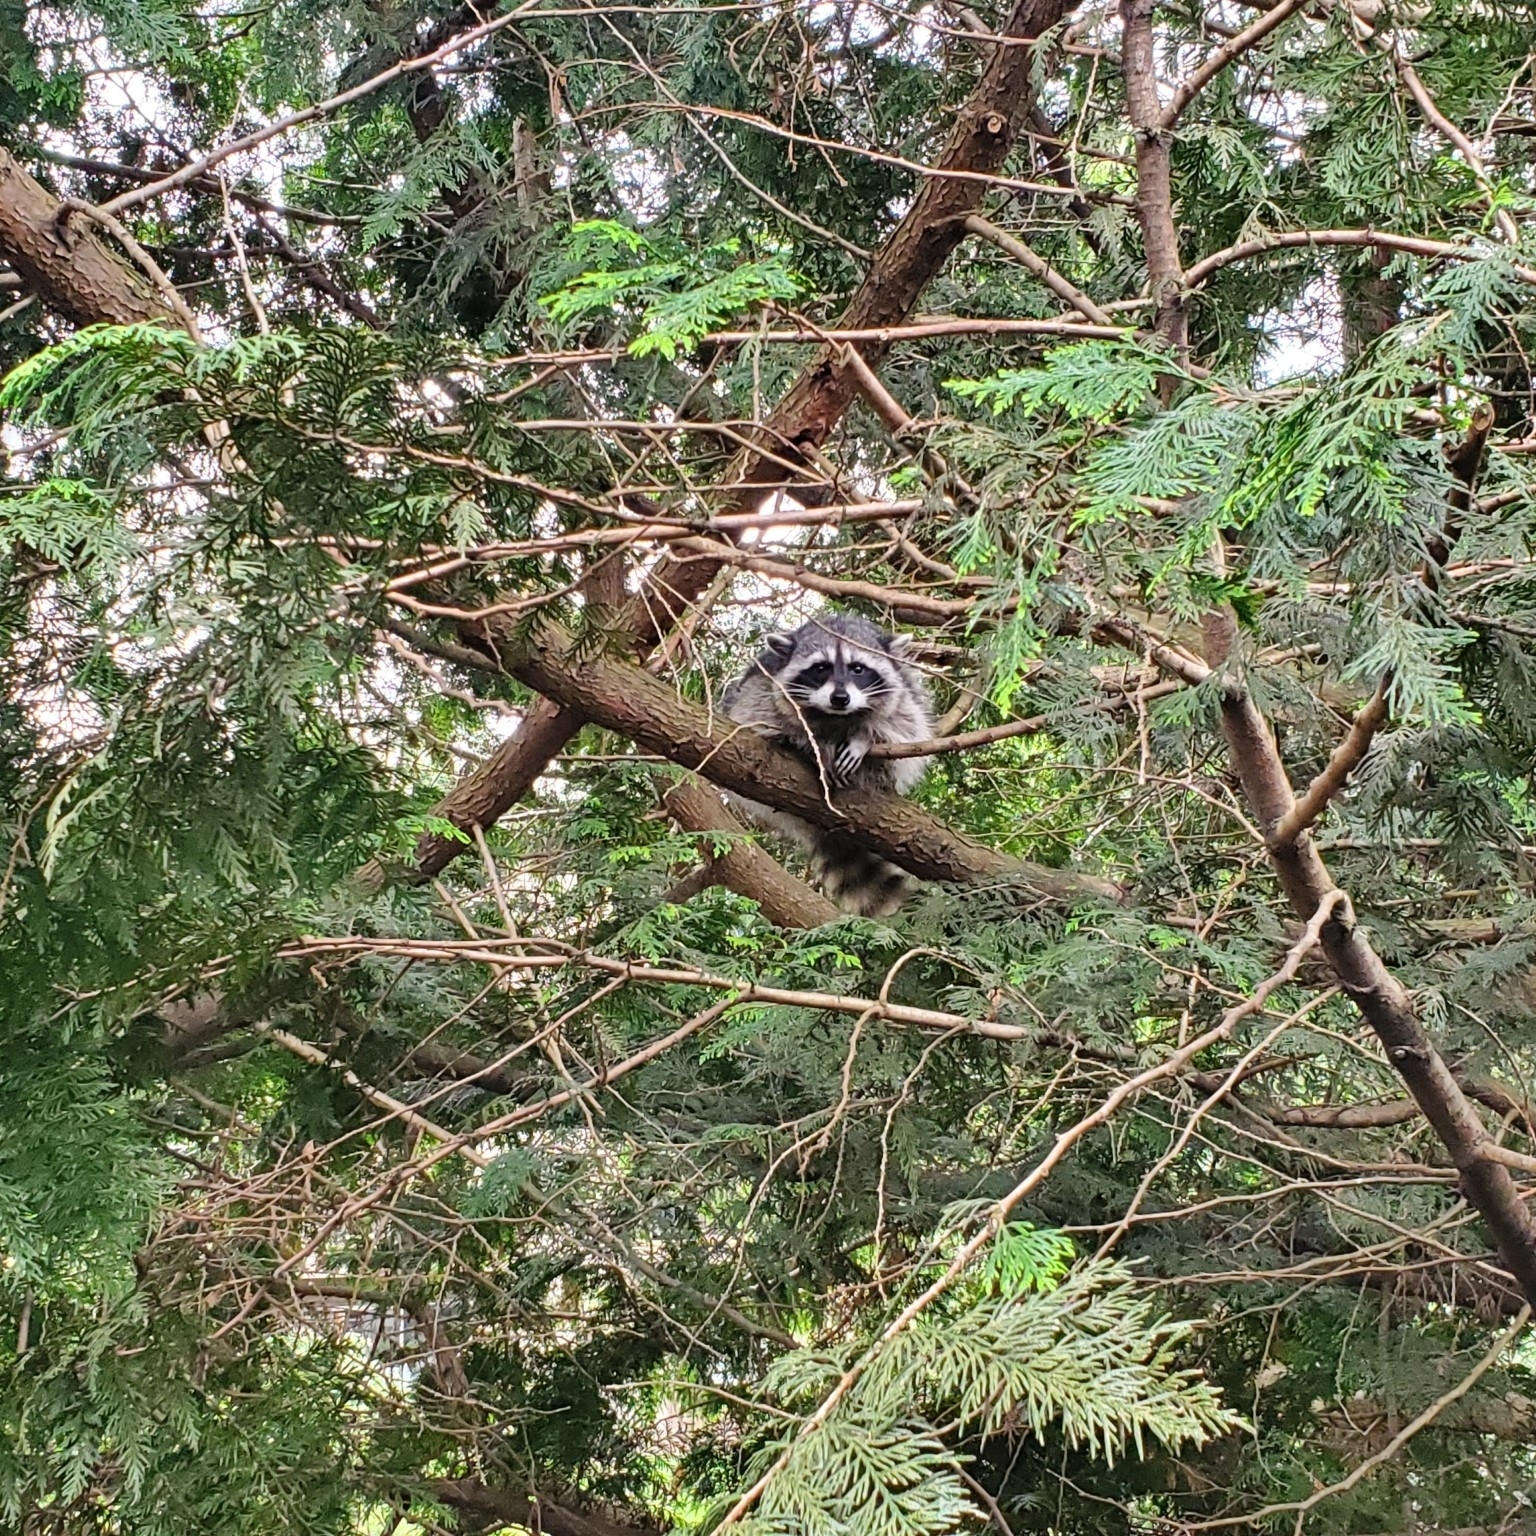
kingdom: Animalia
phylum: Chordata
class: Mammalia
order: Carnivora
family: Procyonidae
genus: Procyon
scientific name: Procyon lotor
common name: Raccoon
